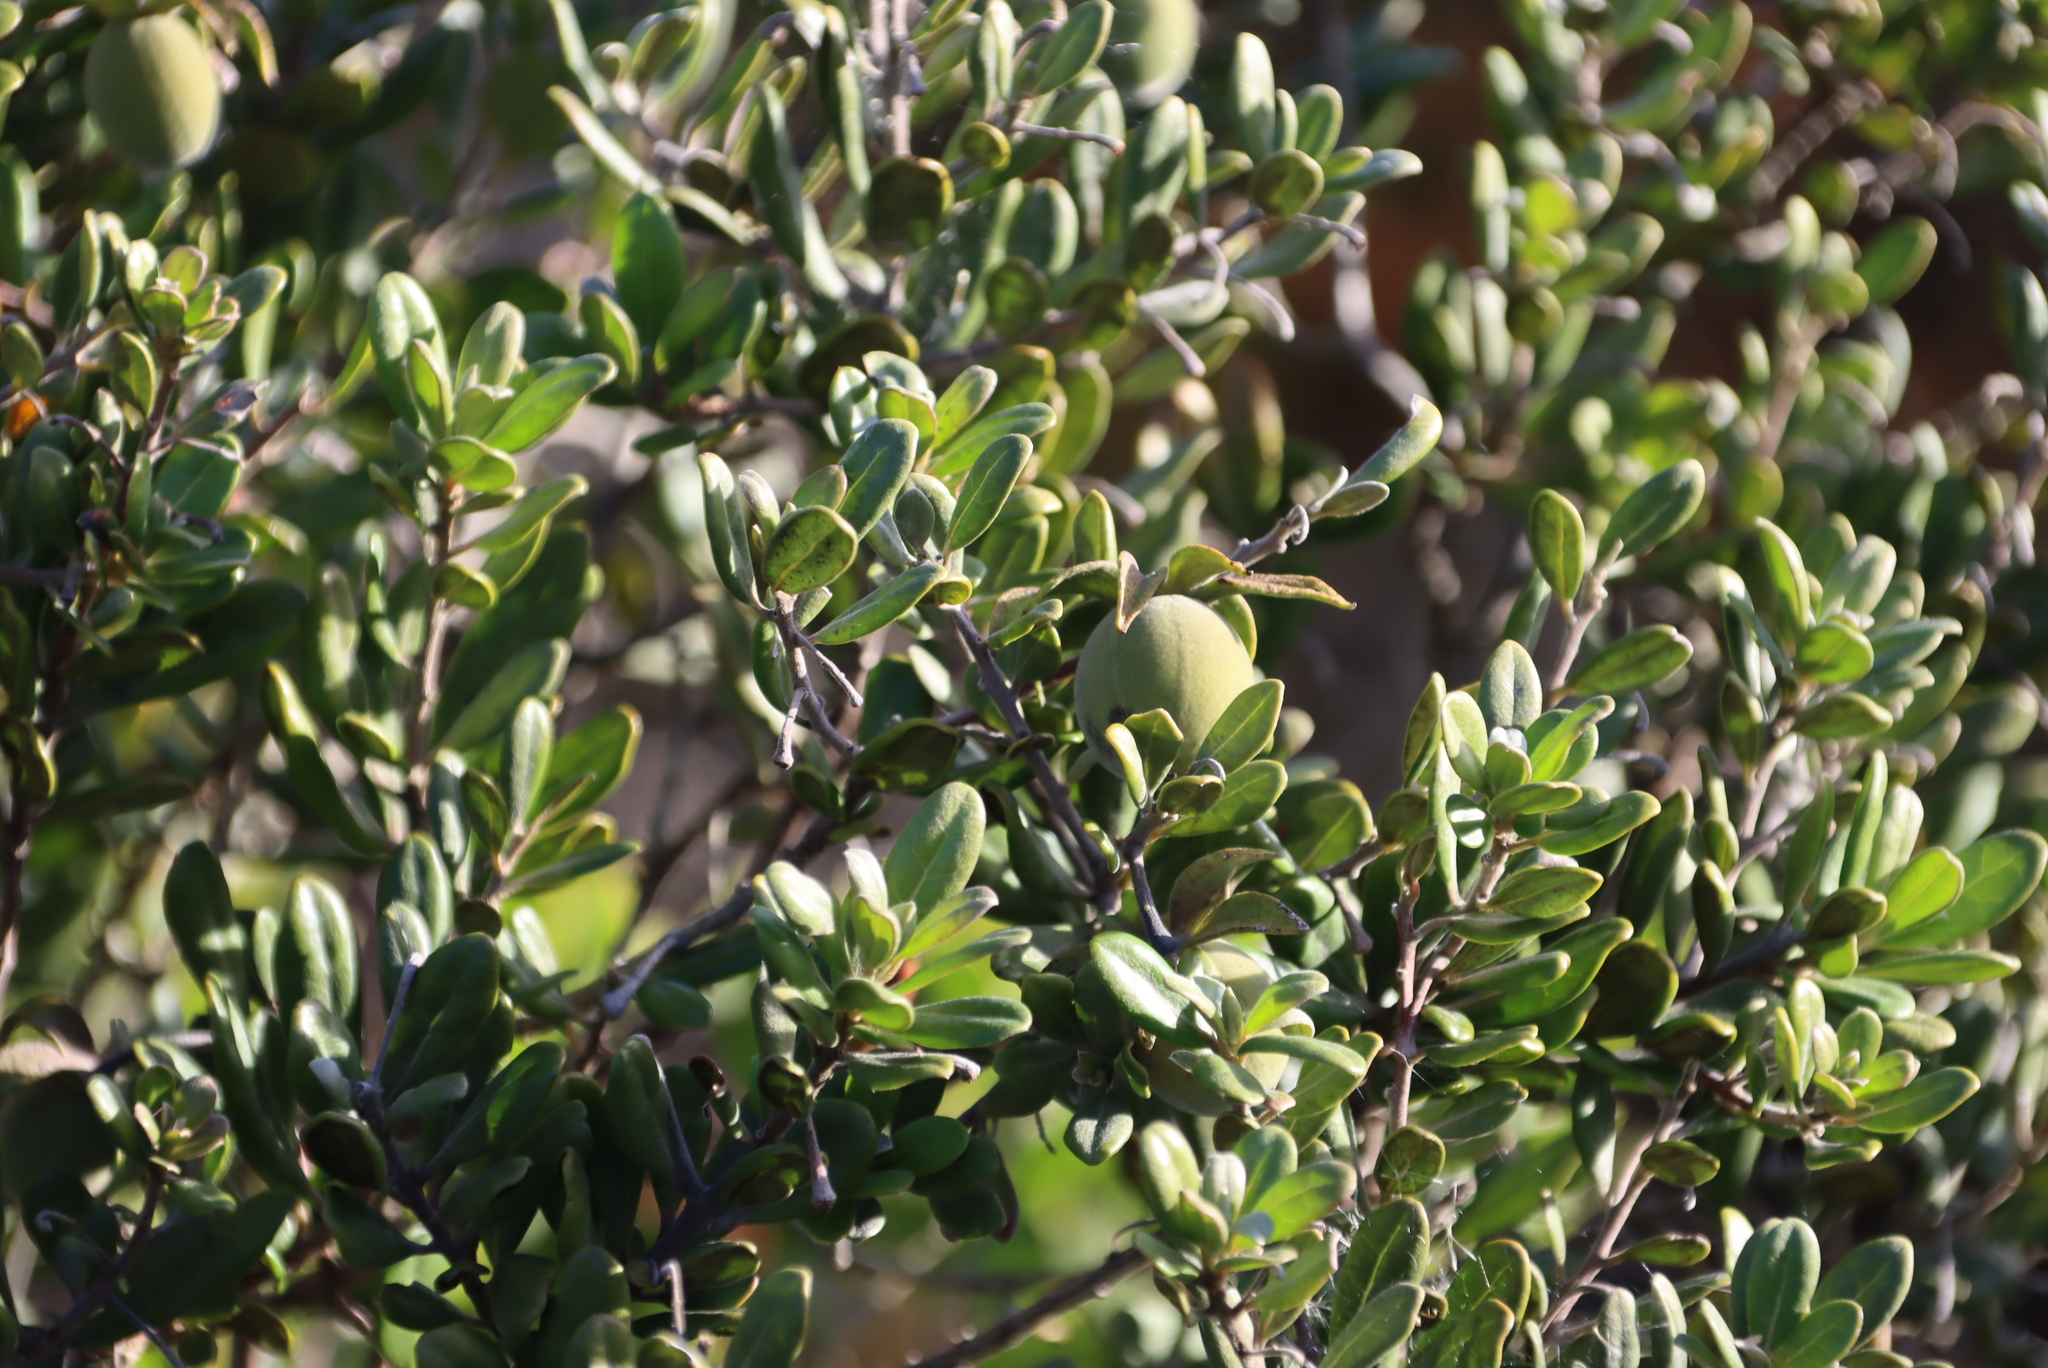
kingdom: Plantae
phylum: Tracheophyta
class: Magnoliopsida
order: Ericales
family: Ebenaceae
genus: Diospyros
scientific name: Diospyros dichrophylla
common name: Common star-apple
